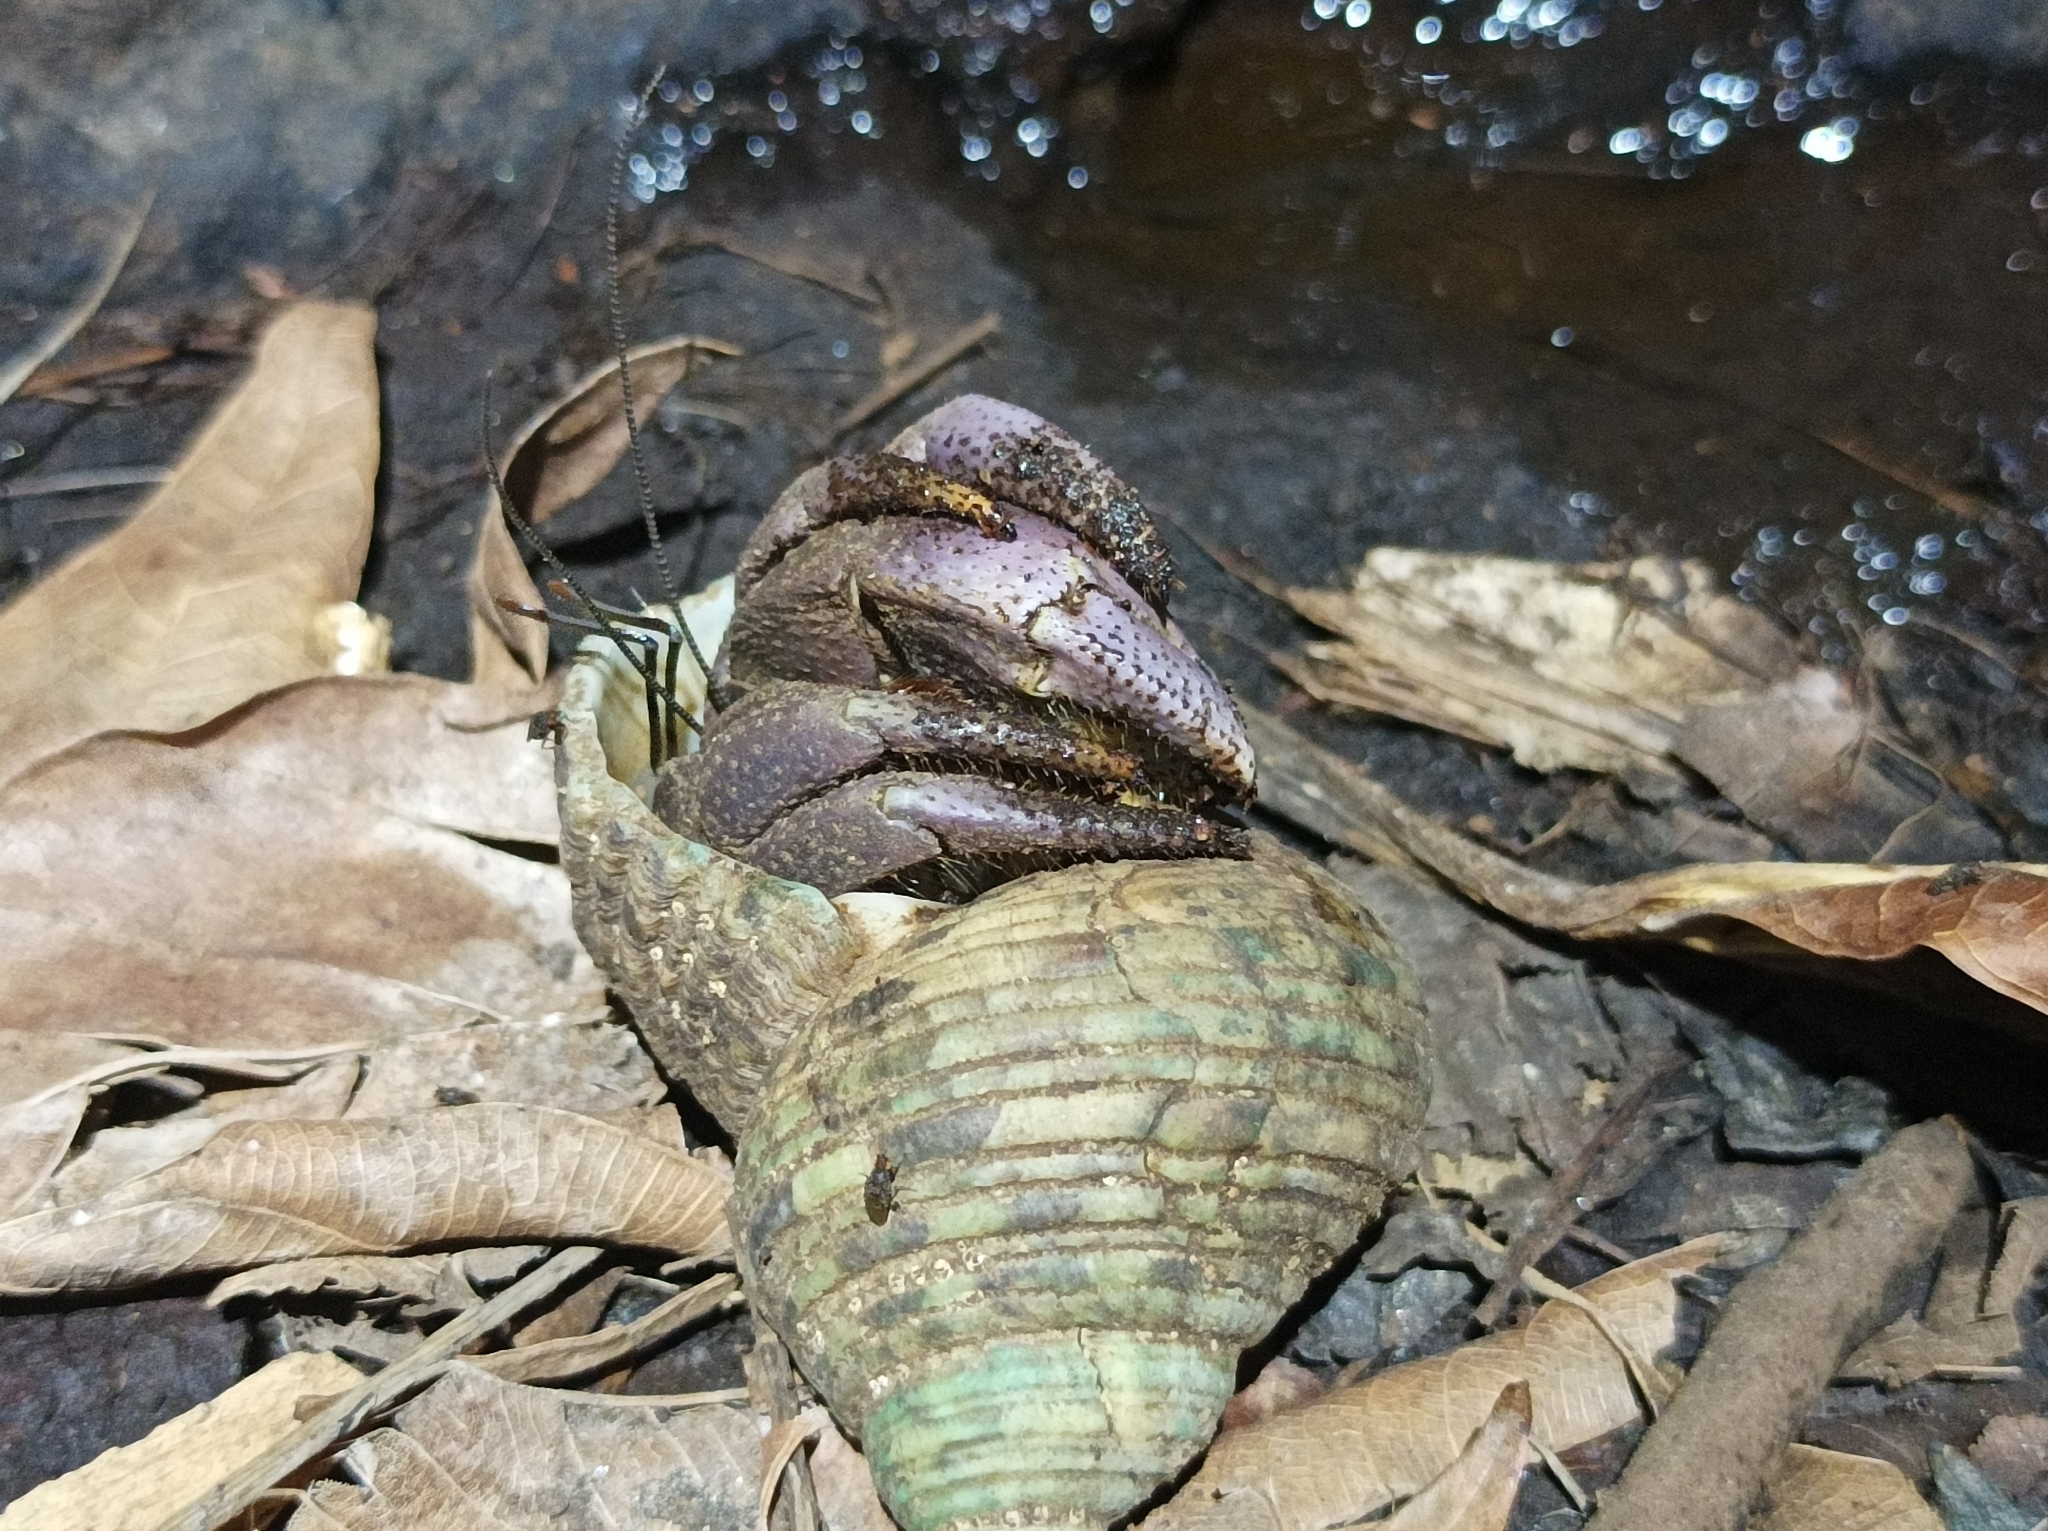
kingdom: Animalia
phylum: Arthropoda
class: Malacostraca
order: Decapoda
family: Coenobitidae
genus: Coenobita
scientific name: Coenobita brevimanus
